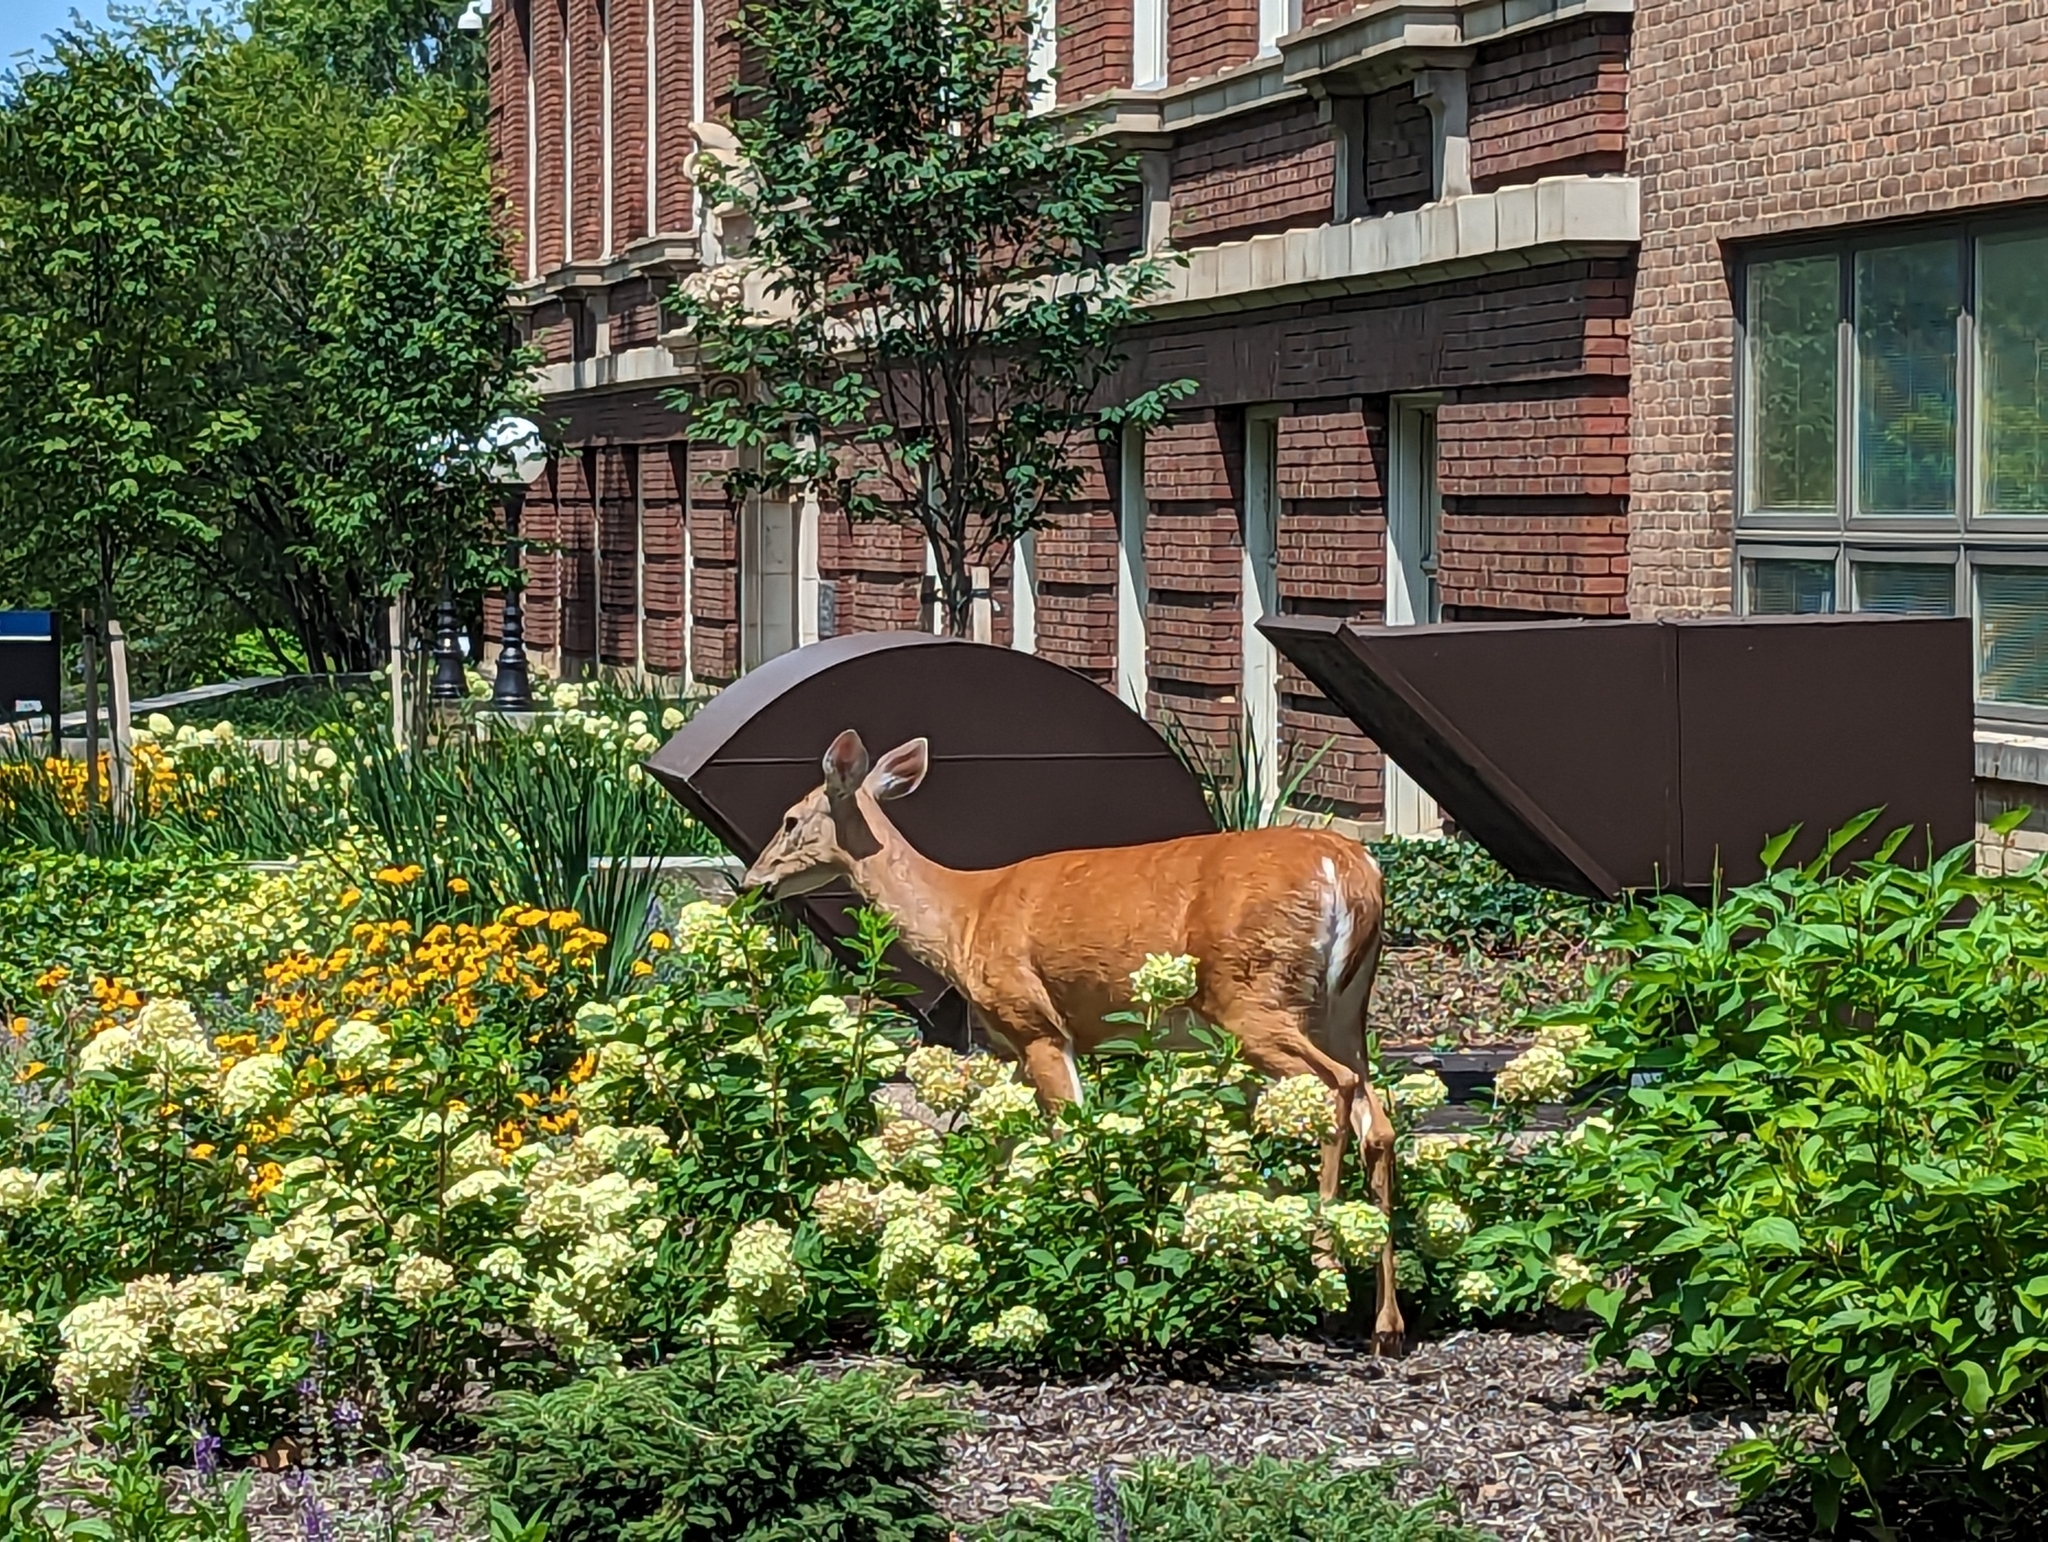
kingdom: Animalia
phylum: Chordata
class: Mammalia
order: Artiodactyla
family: Cervidae
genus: Odocoileus
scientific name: Odocoileus virginianus
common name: White-tailed deer
